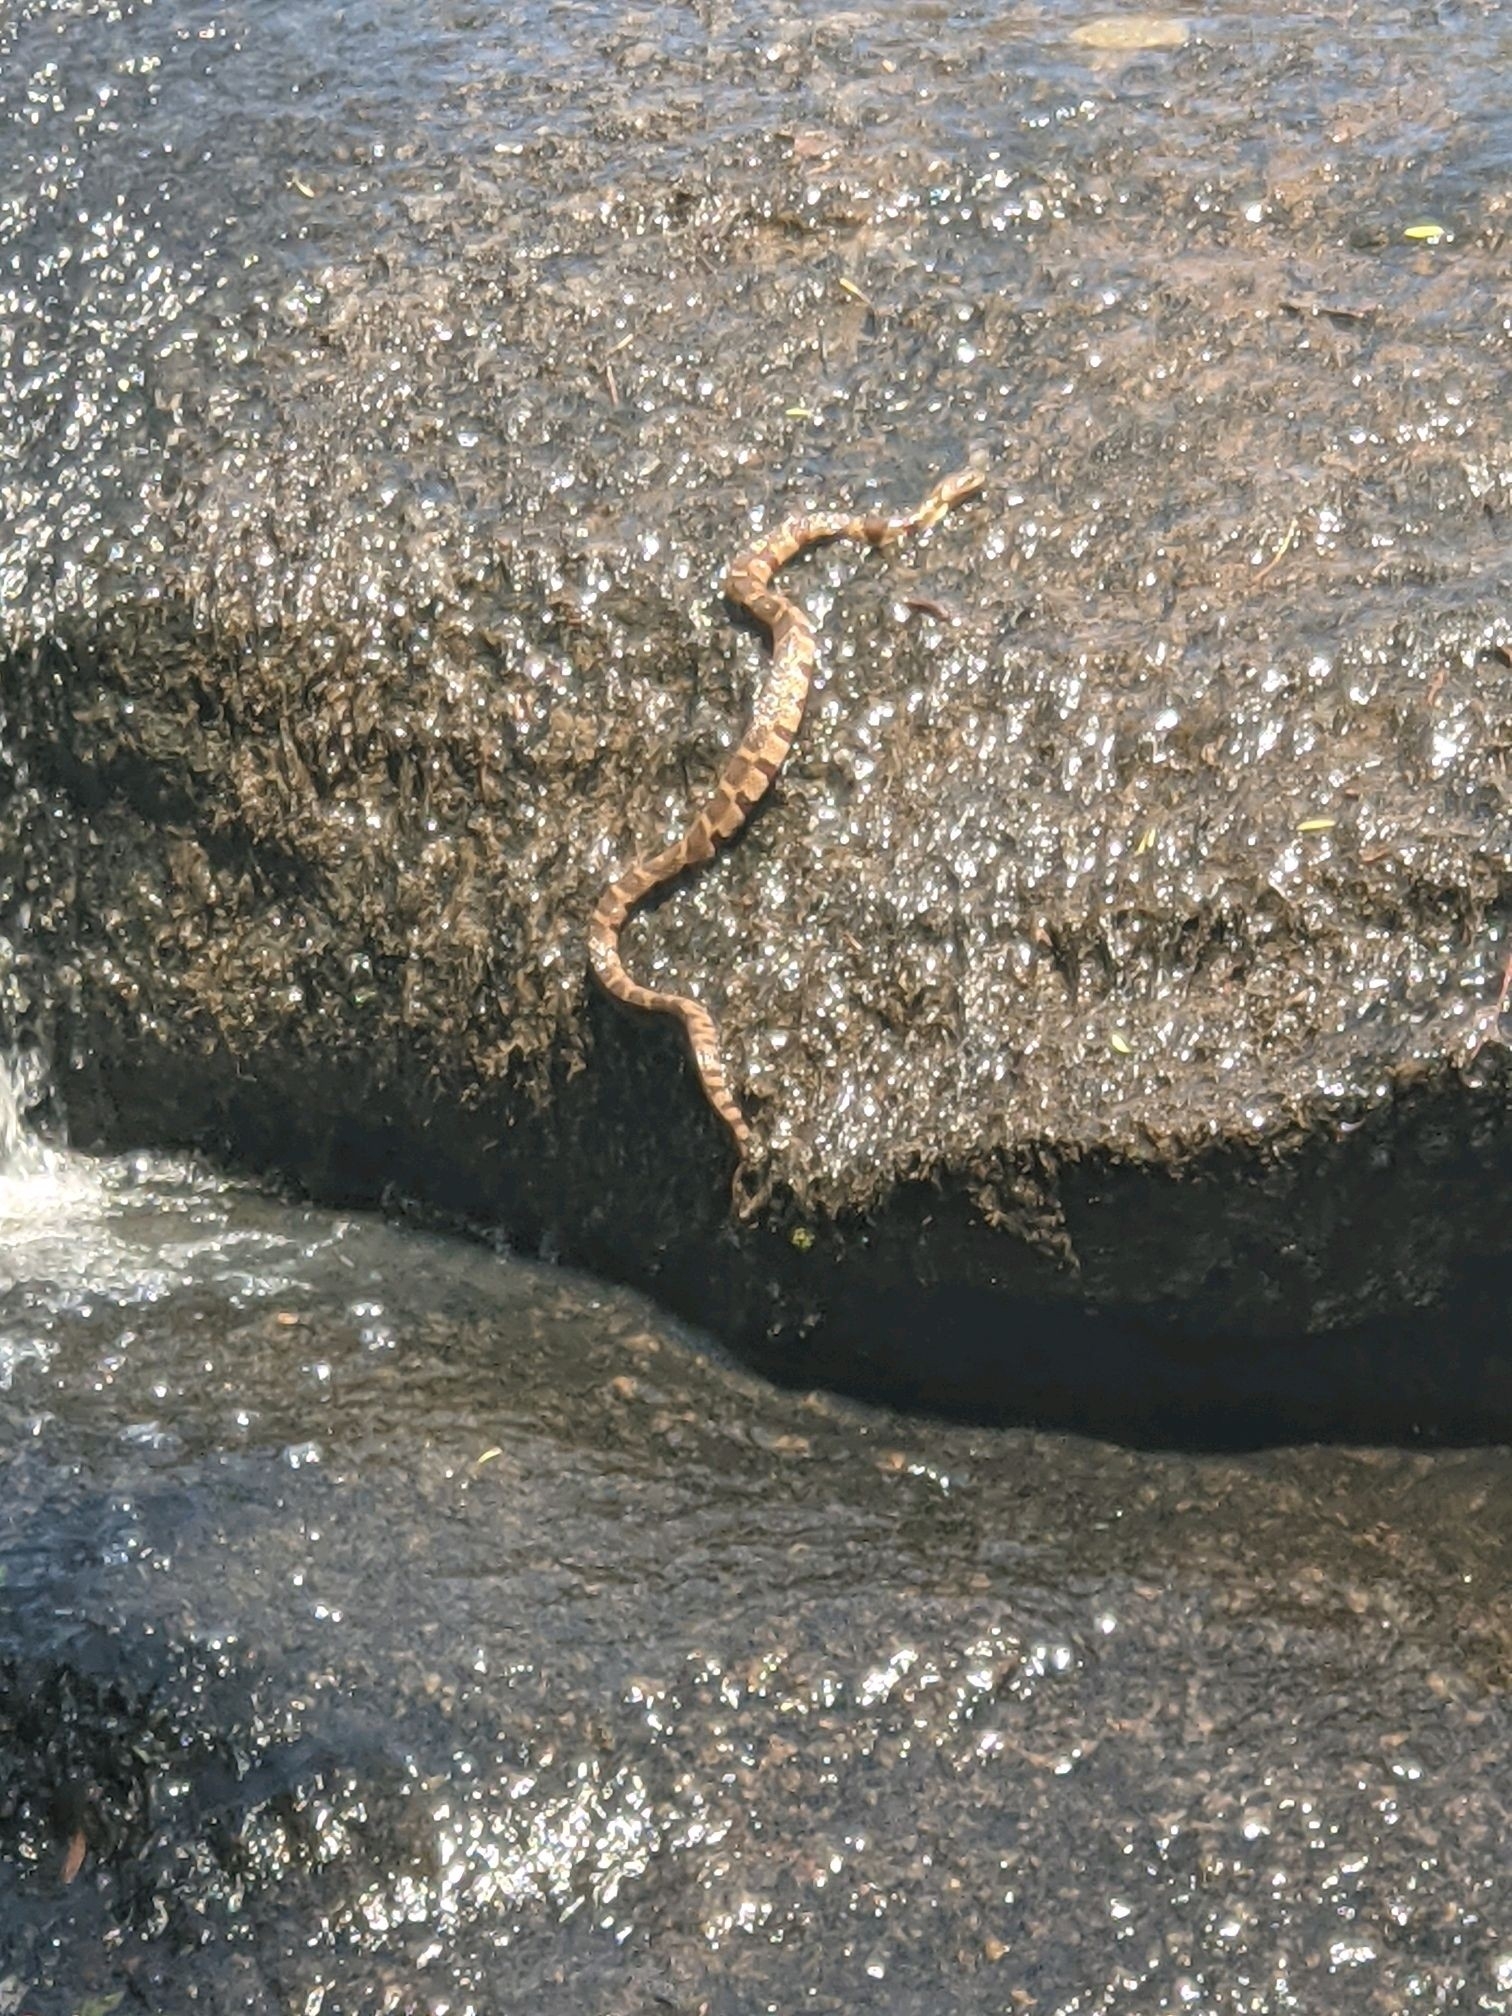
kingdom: Animalia
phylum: Chordata
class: Squamata
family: Colubridae
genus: Nerodia
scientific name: Nerodia sipedon
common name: Northern water snake
